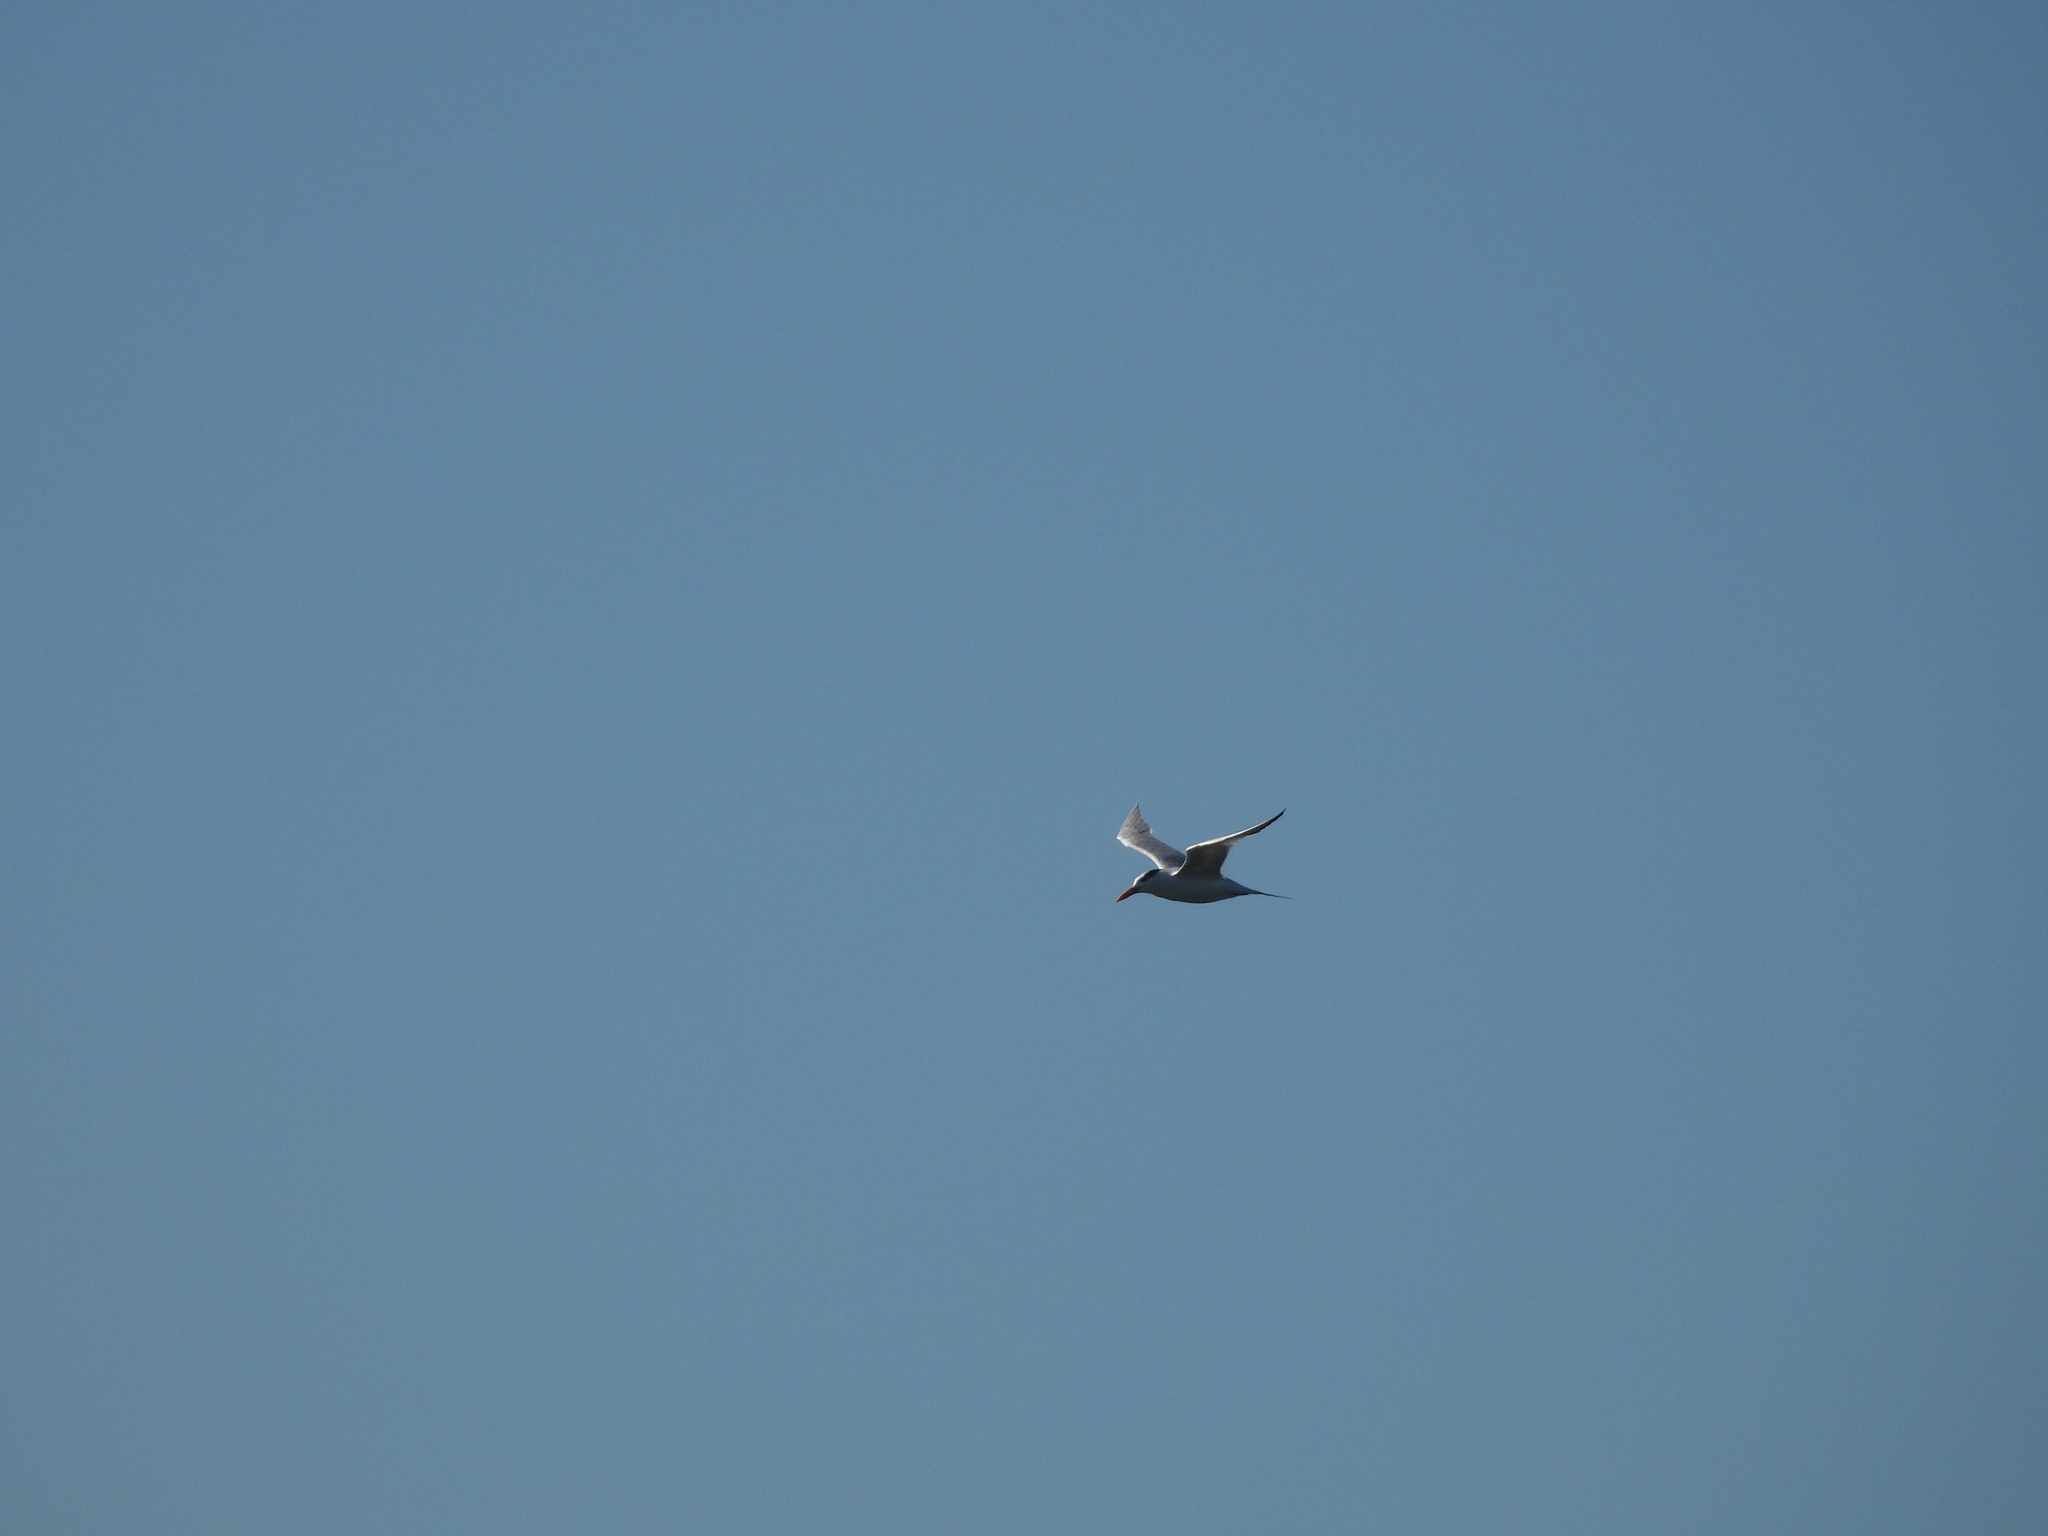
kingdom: Animalia
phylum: Chordata
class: Aves
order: Charadriiformes
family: Laridae
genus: Thalasseus
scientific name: Thalasseus maximus
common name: Royal tern
